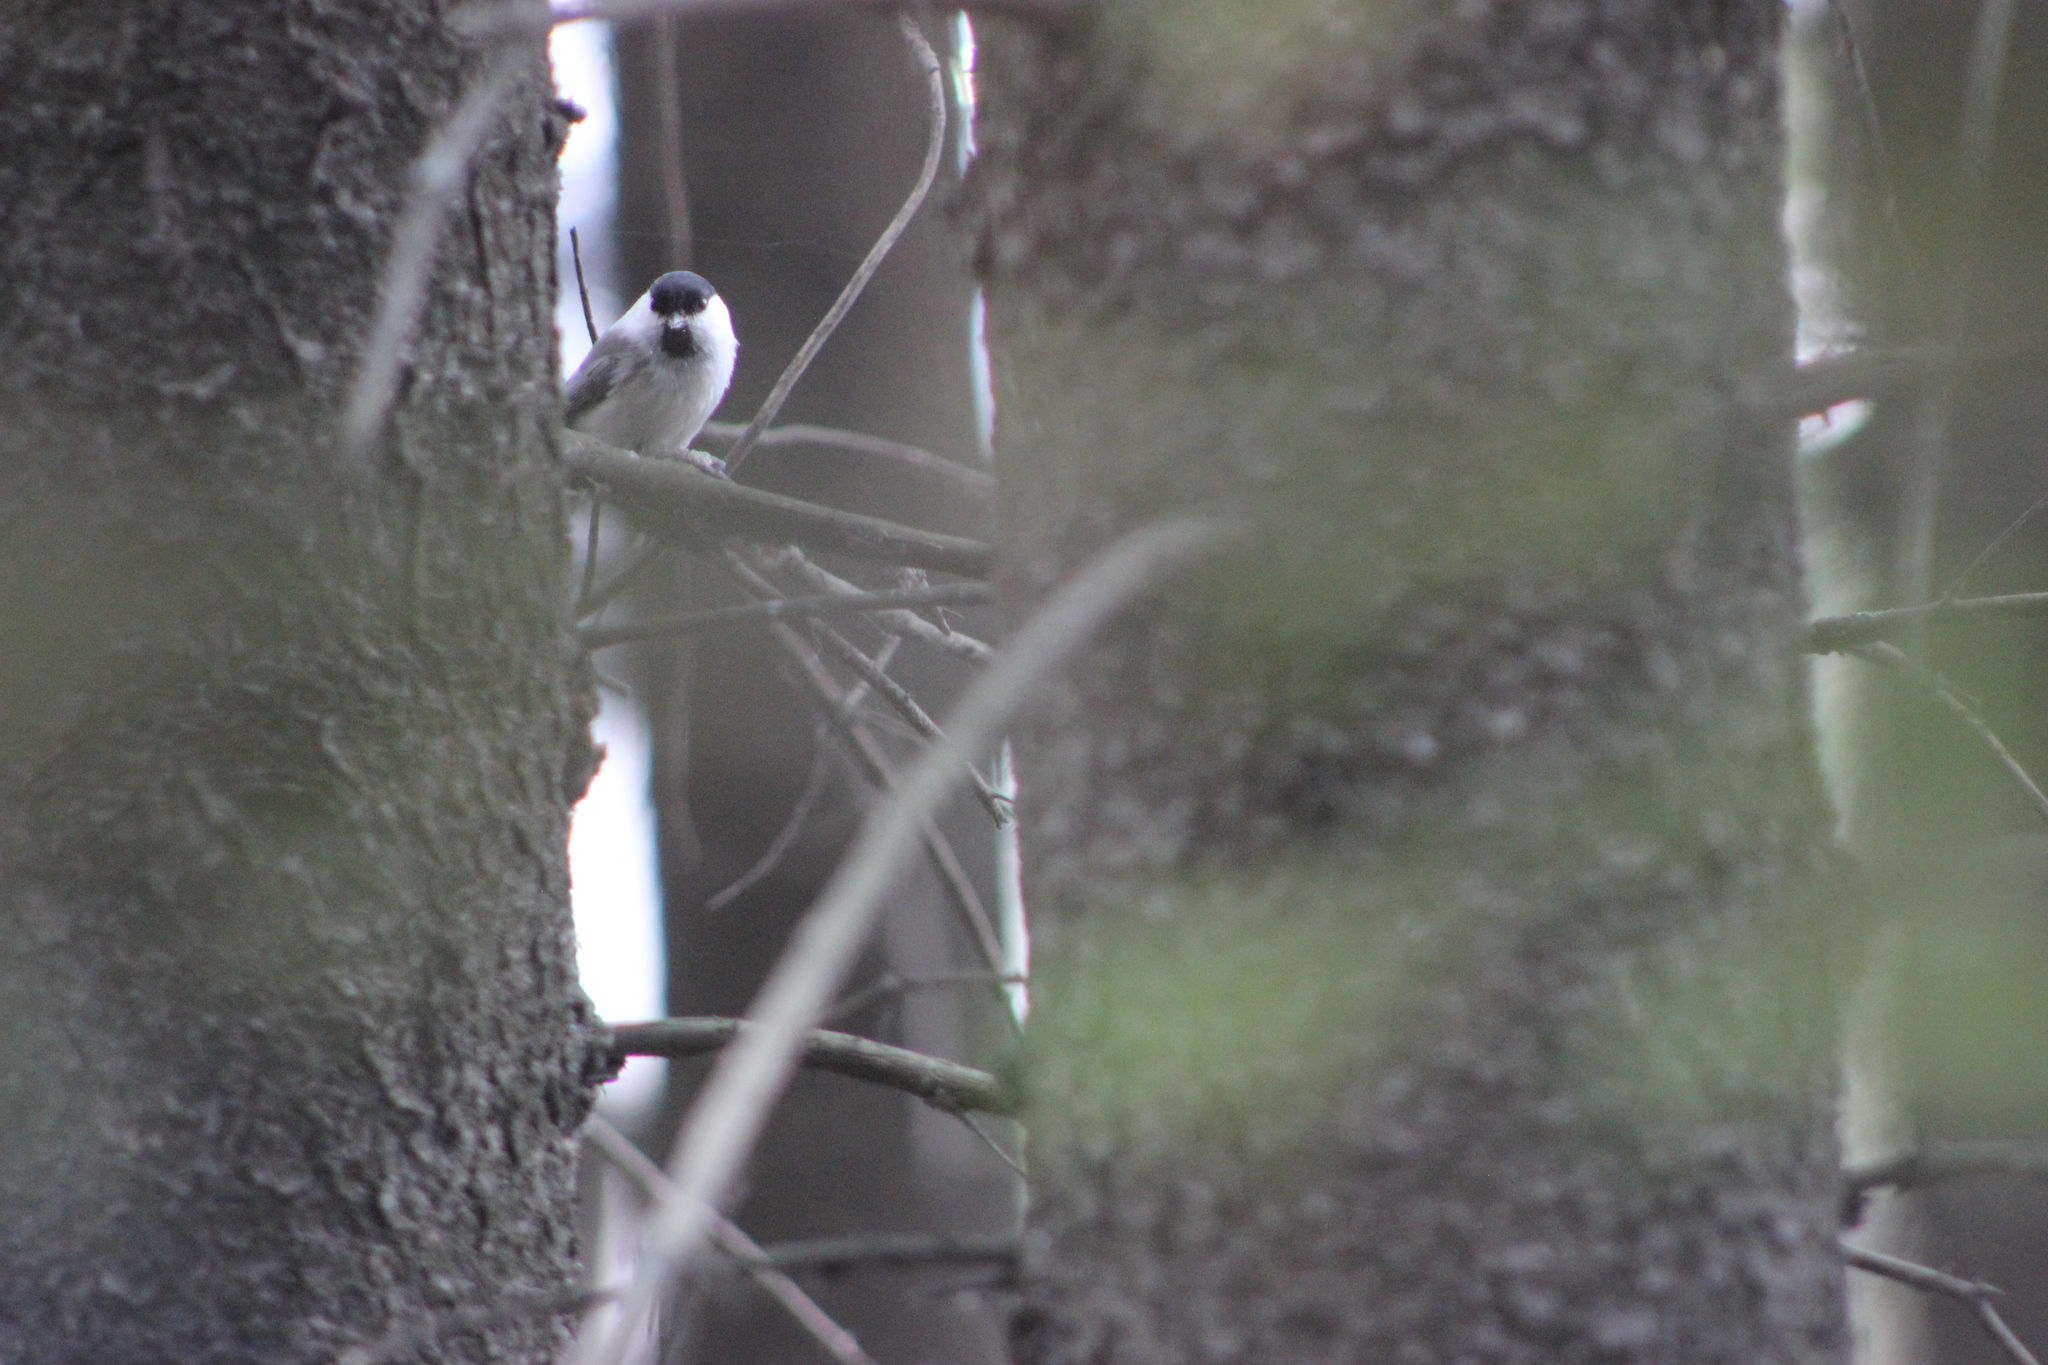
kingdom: Animalia
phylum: Chordata
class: Aves
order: Passeriformes
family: Paridae
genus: Poecile
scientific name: Poecile montanus
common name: Willow tit
